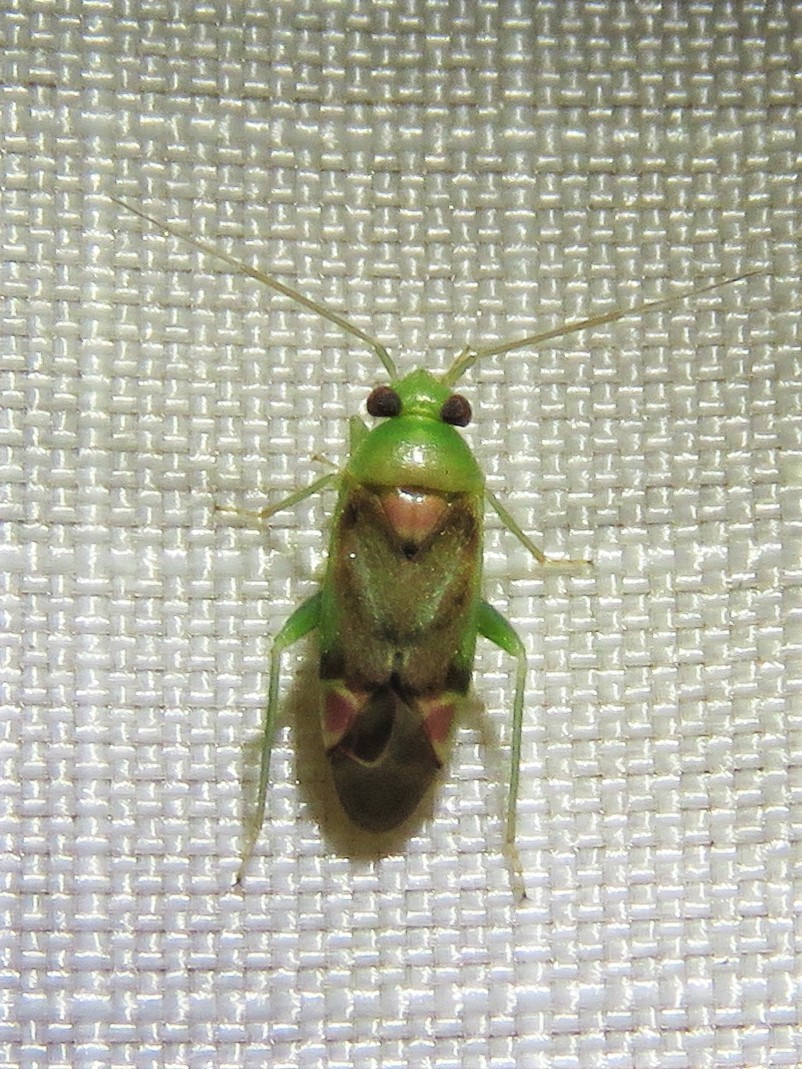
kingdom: Animalia
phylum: Arthropoda
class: Insecta
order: Hemiptera
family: Miridae
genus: Dichrooscytus
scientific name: Dichrooscytus
